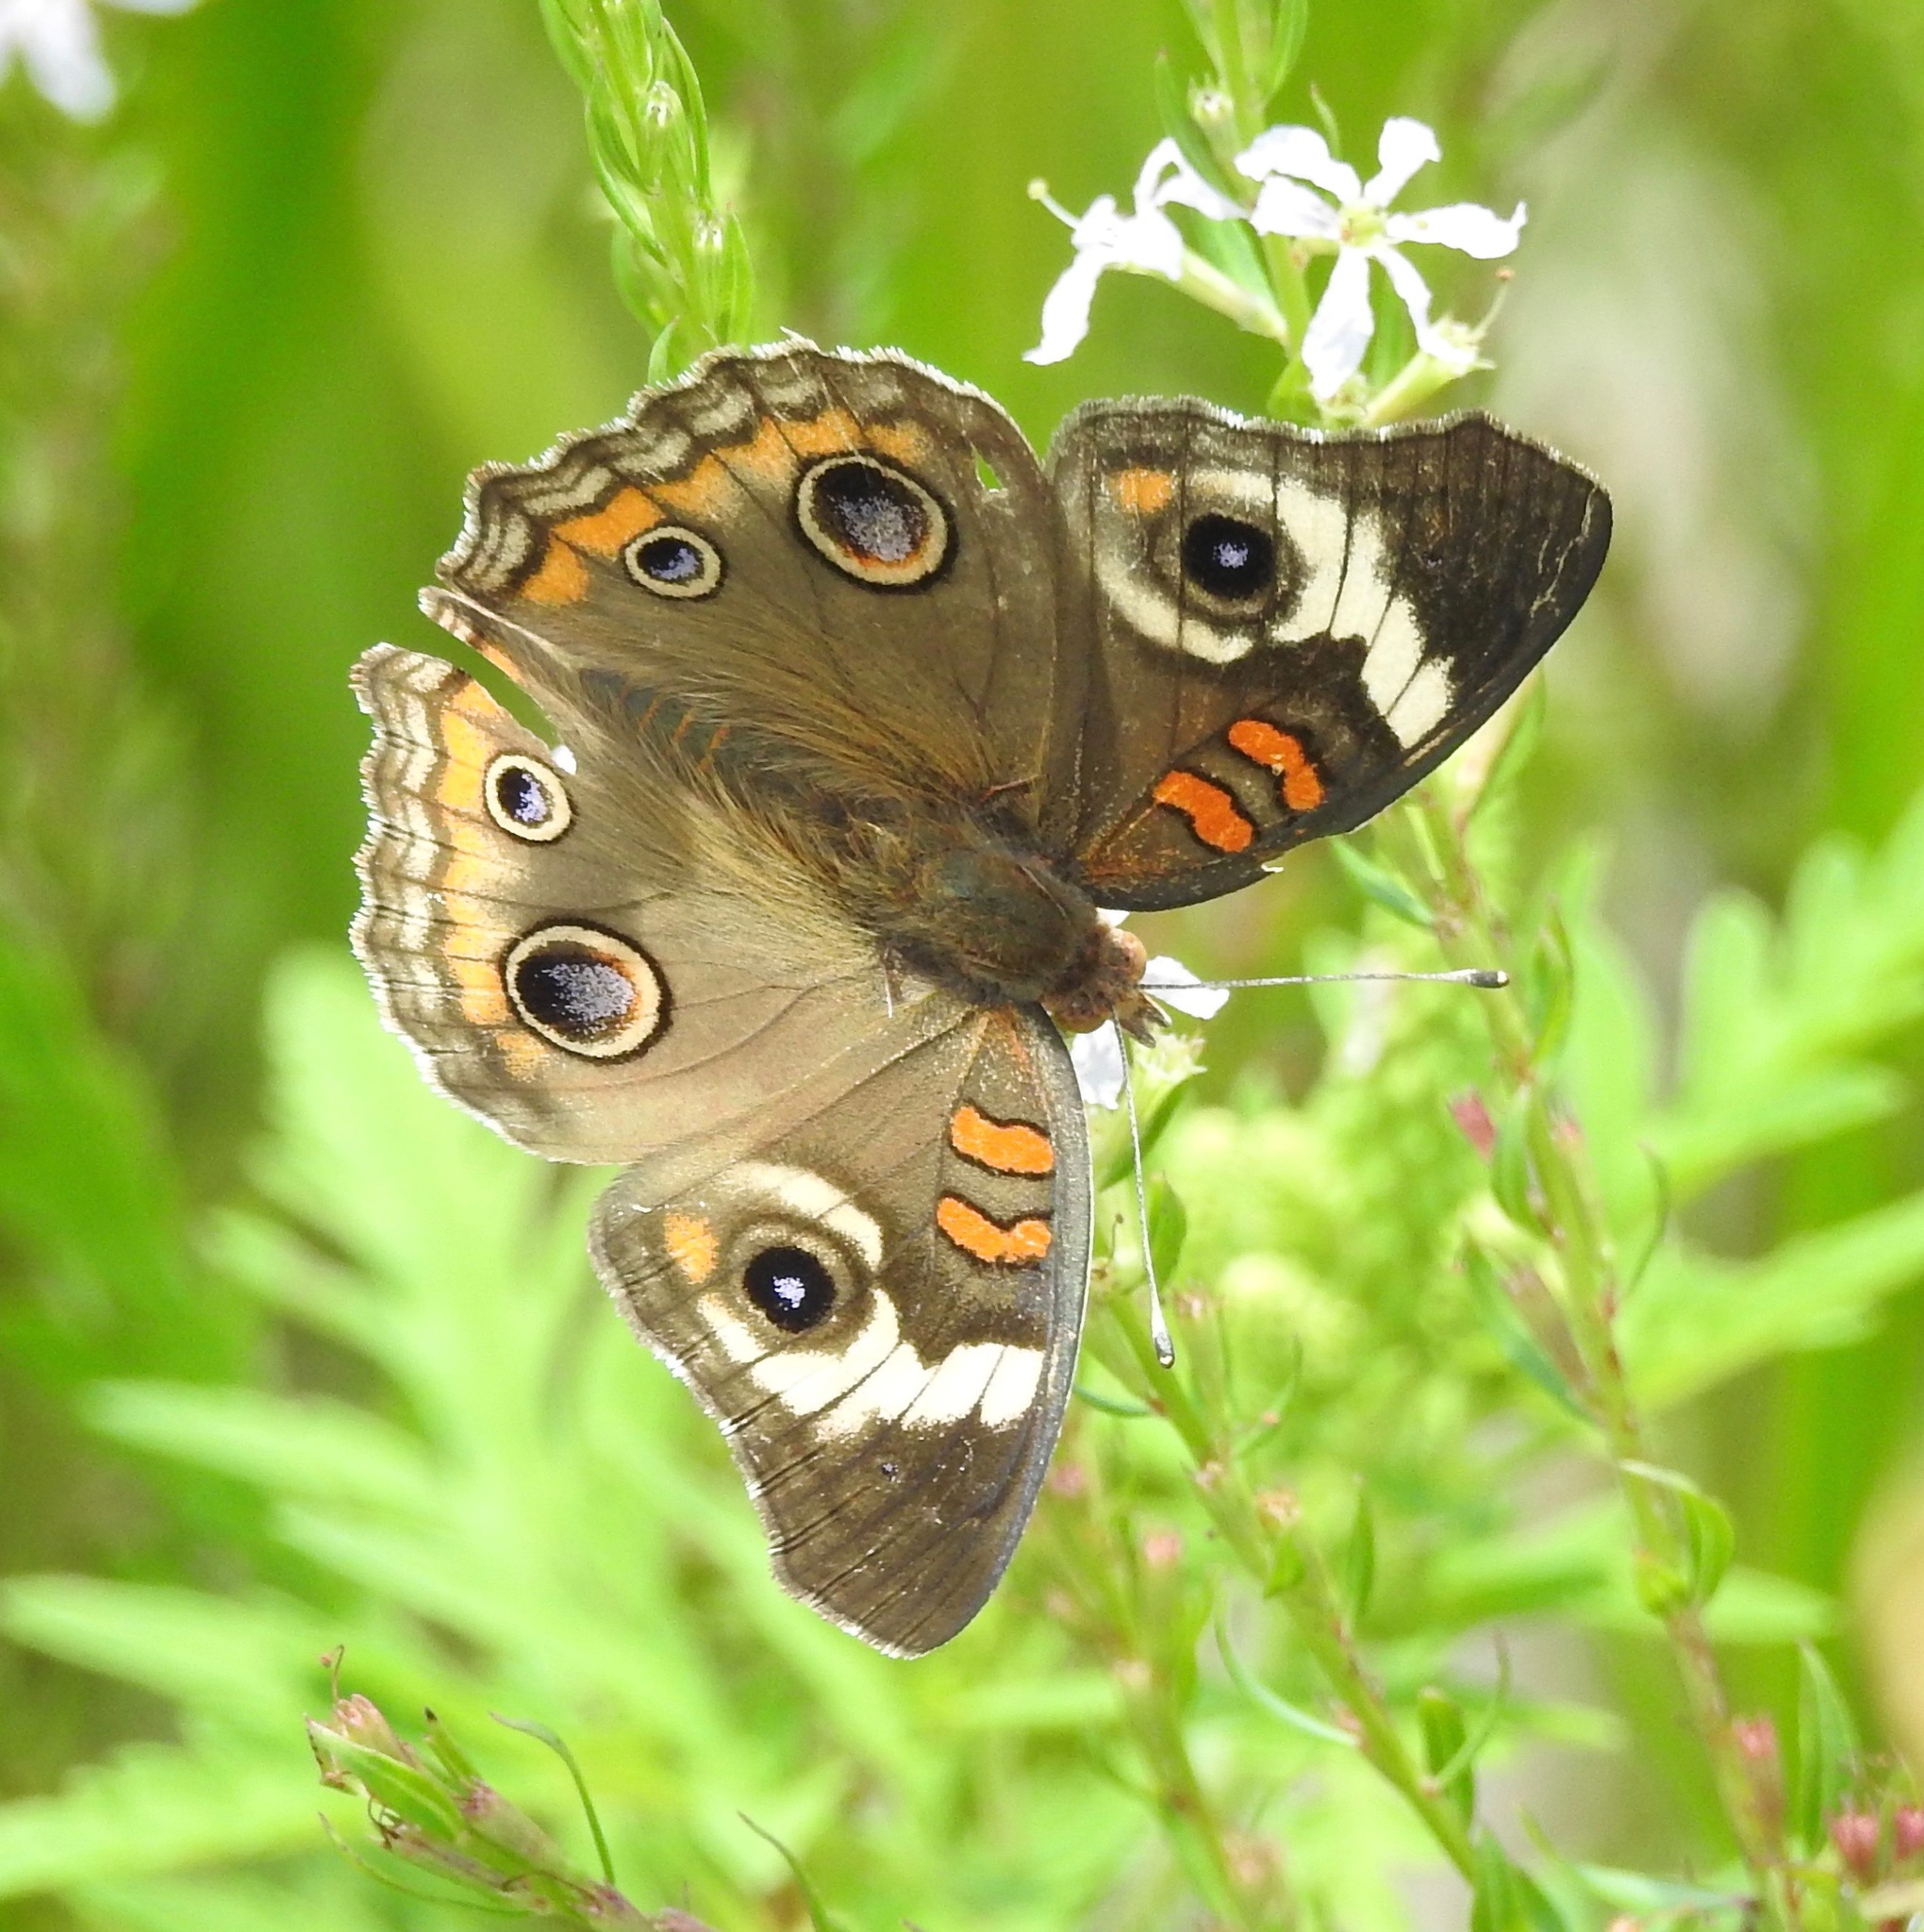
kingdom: Animalia
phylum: Arthropoda
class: Insecta
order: Lepidoptera
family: Nymphalidae
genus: Junonia
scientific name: Junonia coenia
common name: Common buckeye
